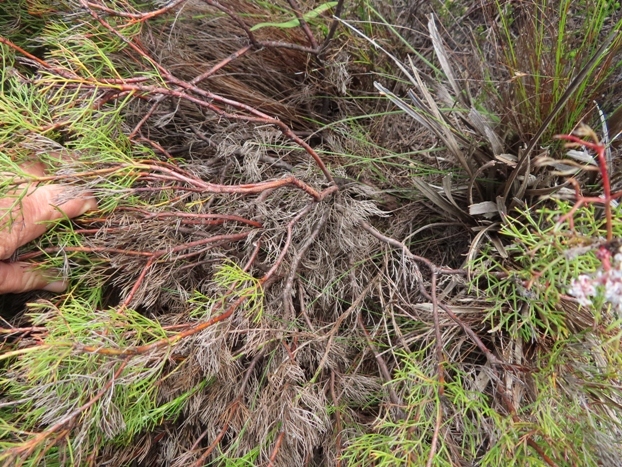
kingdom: Plantae
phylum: Tracheophyta
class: Magnoliopsida
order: Proteales
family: Proteaceae
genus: Serruria
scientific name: Serruria bolusii
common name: Agulhas spiderhead
